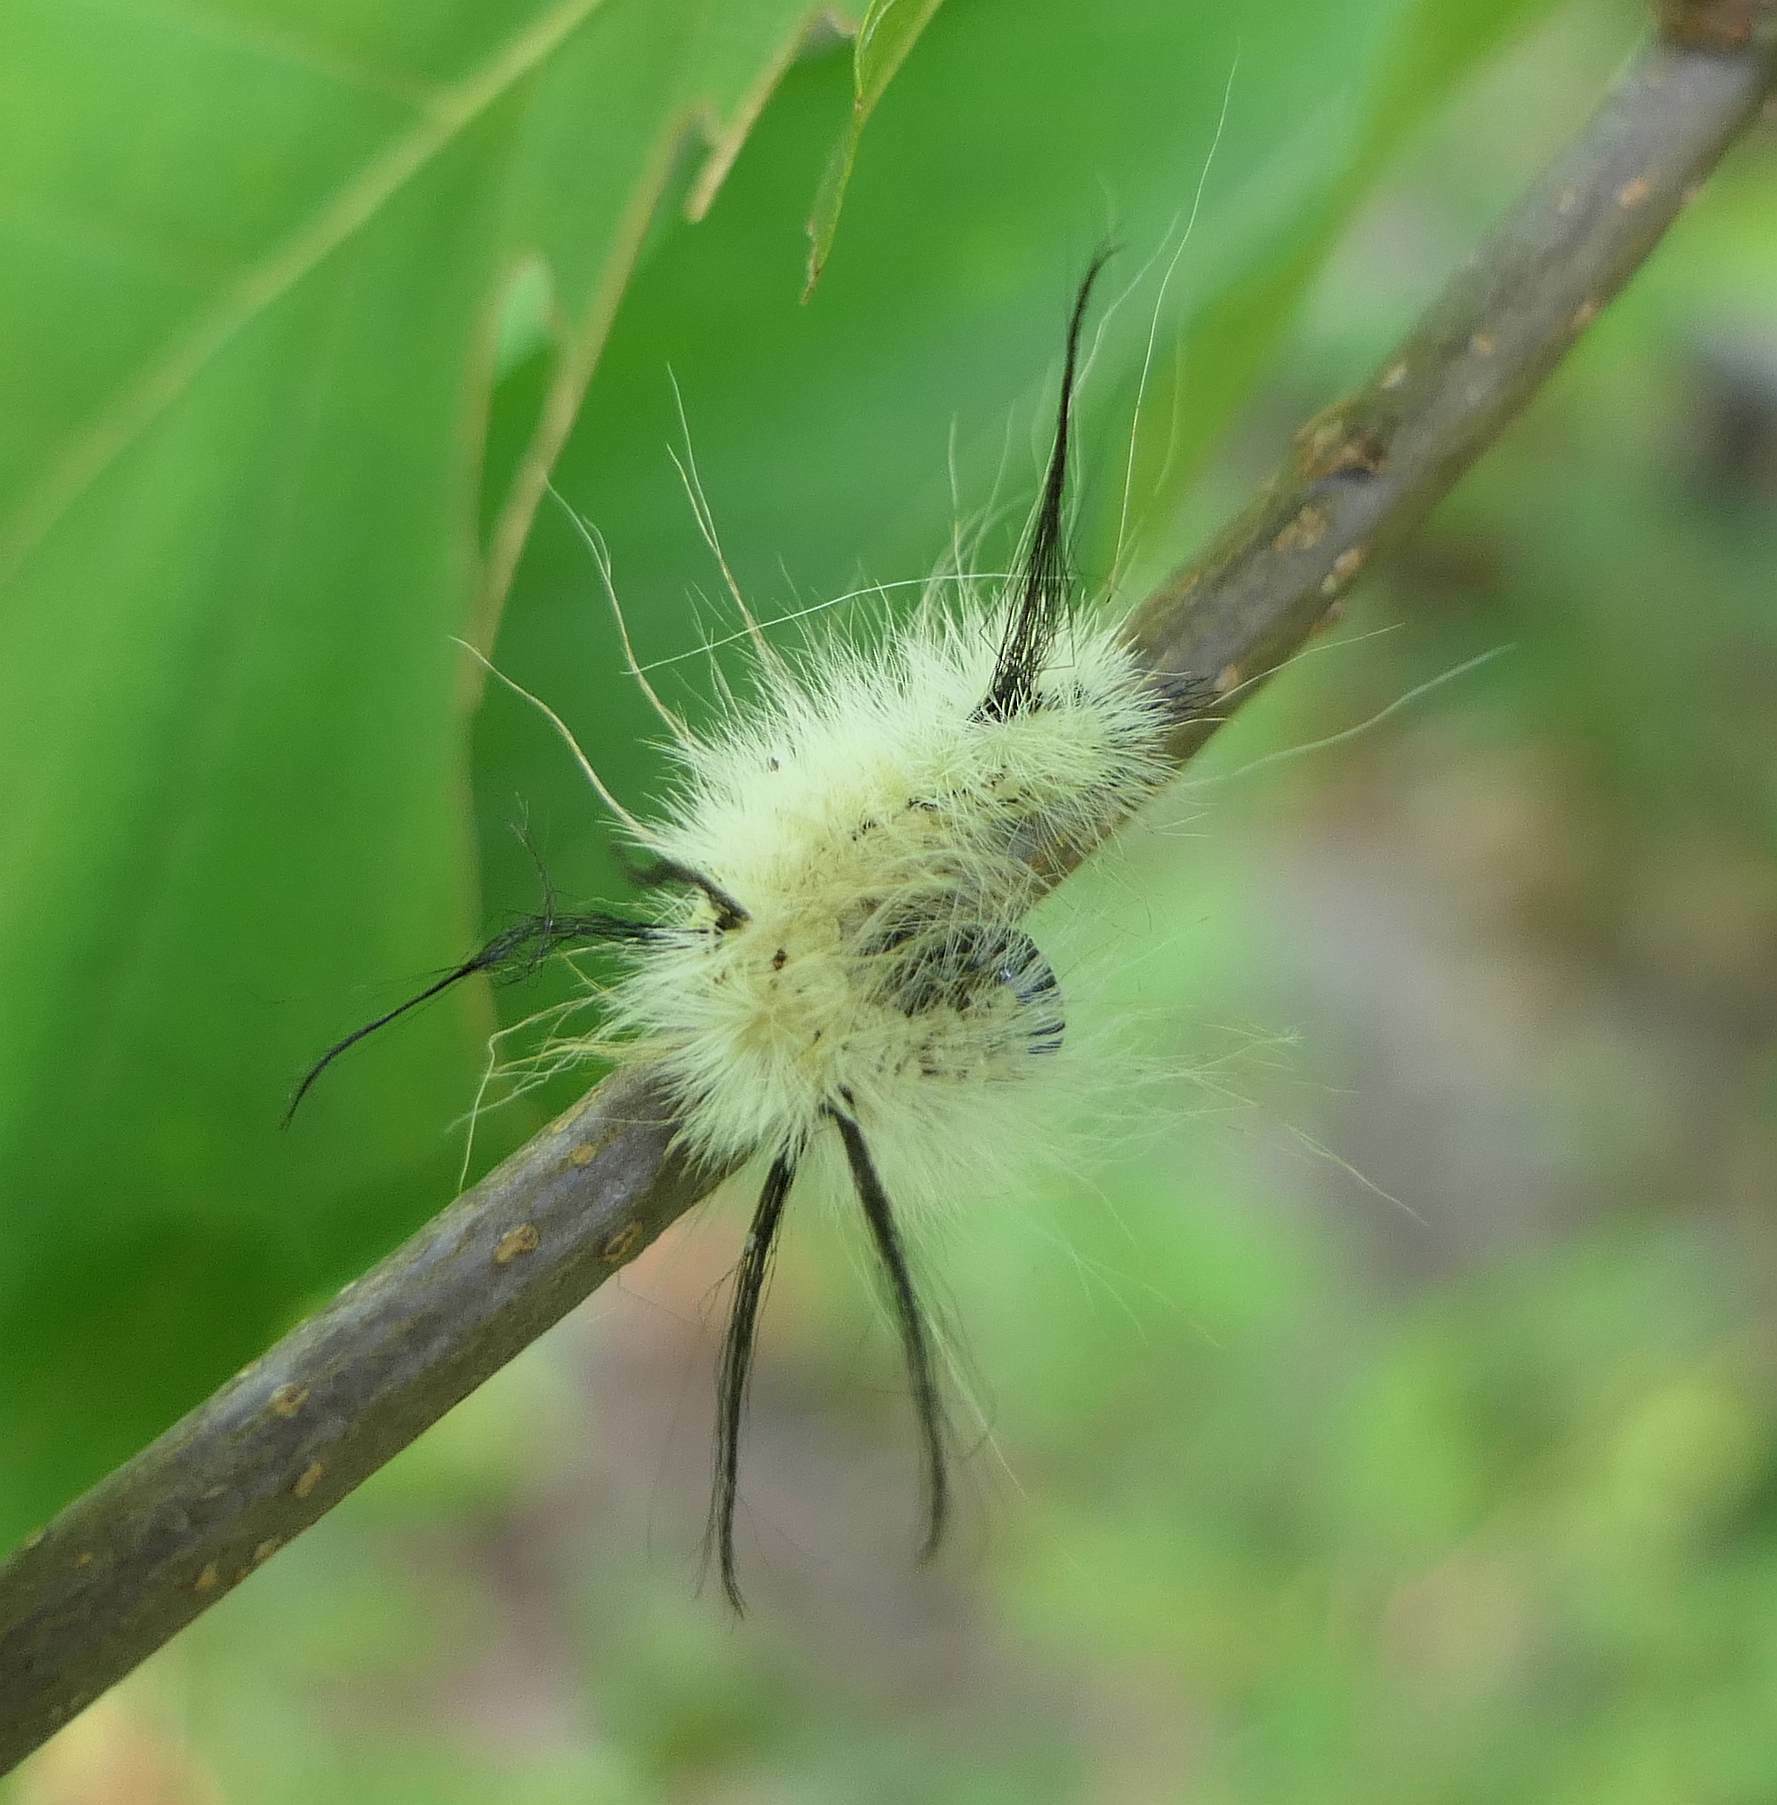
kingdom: Animalia
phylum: Arthropoda
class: Insecta
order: Lepidoptera
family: Noctuidae
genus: Acronicta
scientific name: Acronicta americana
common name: American dagger
